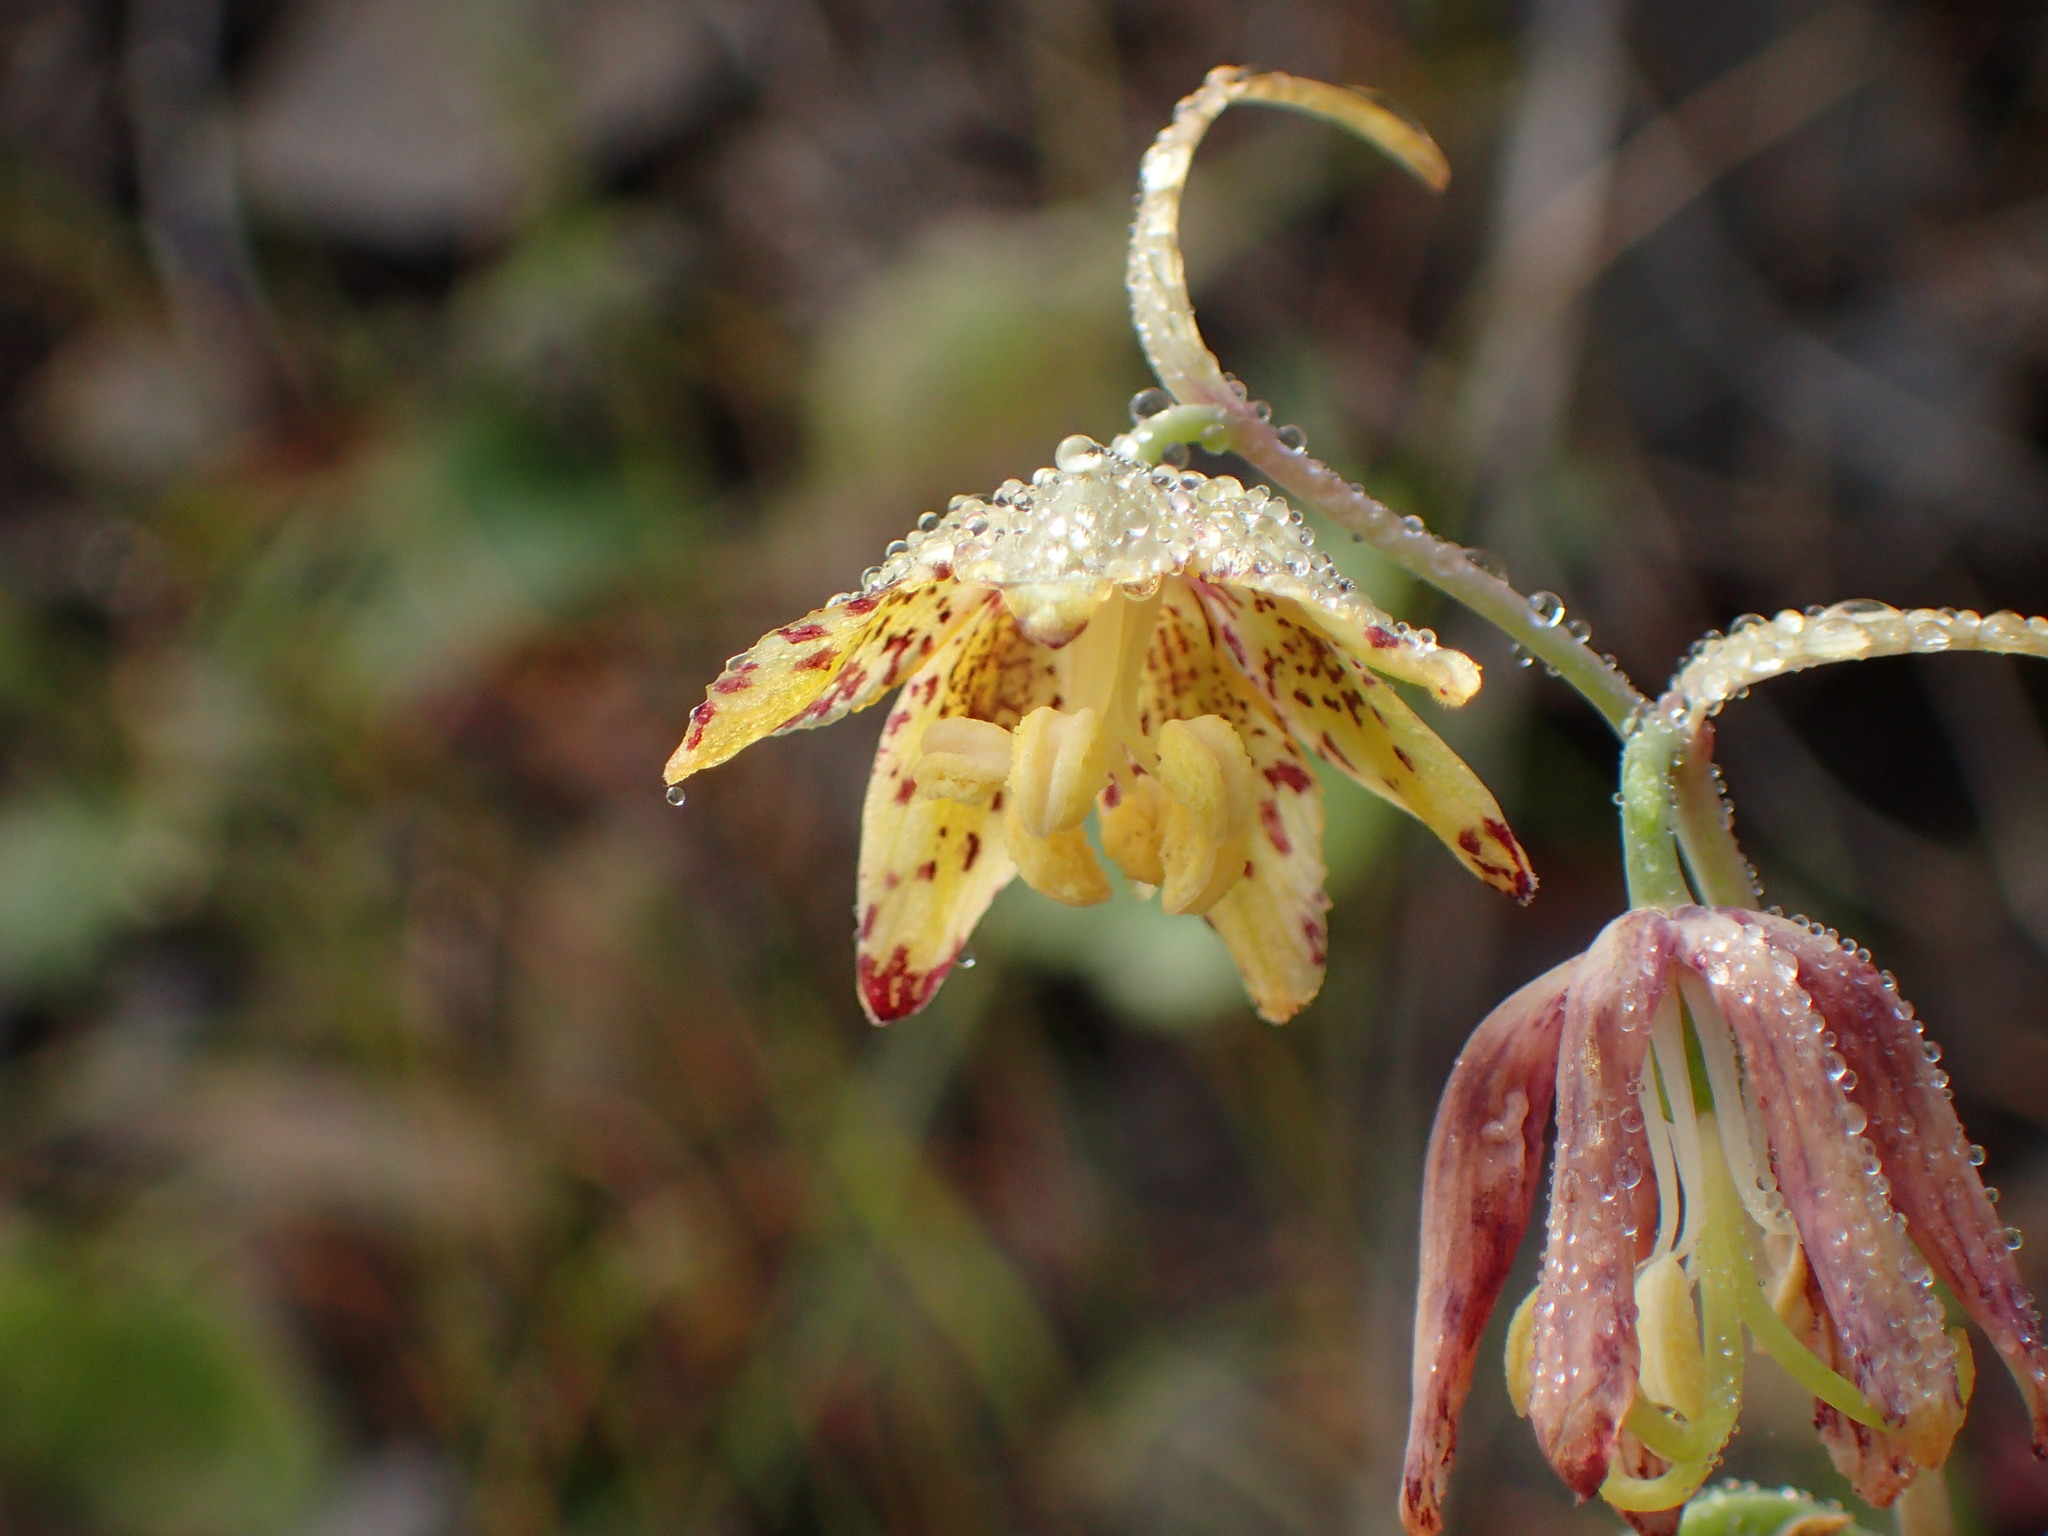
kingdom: Plantae
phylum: Tracheophyta
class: Liliopsida
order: Liliales
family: Liliaceae
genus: Fritillaria
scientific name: Fritillaria ojaiensis
